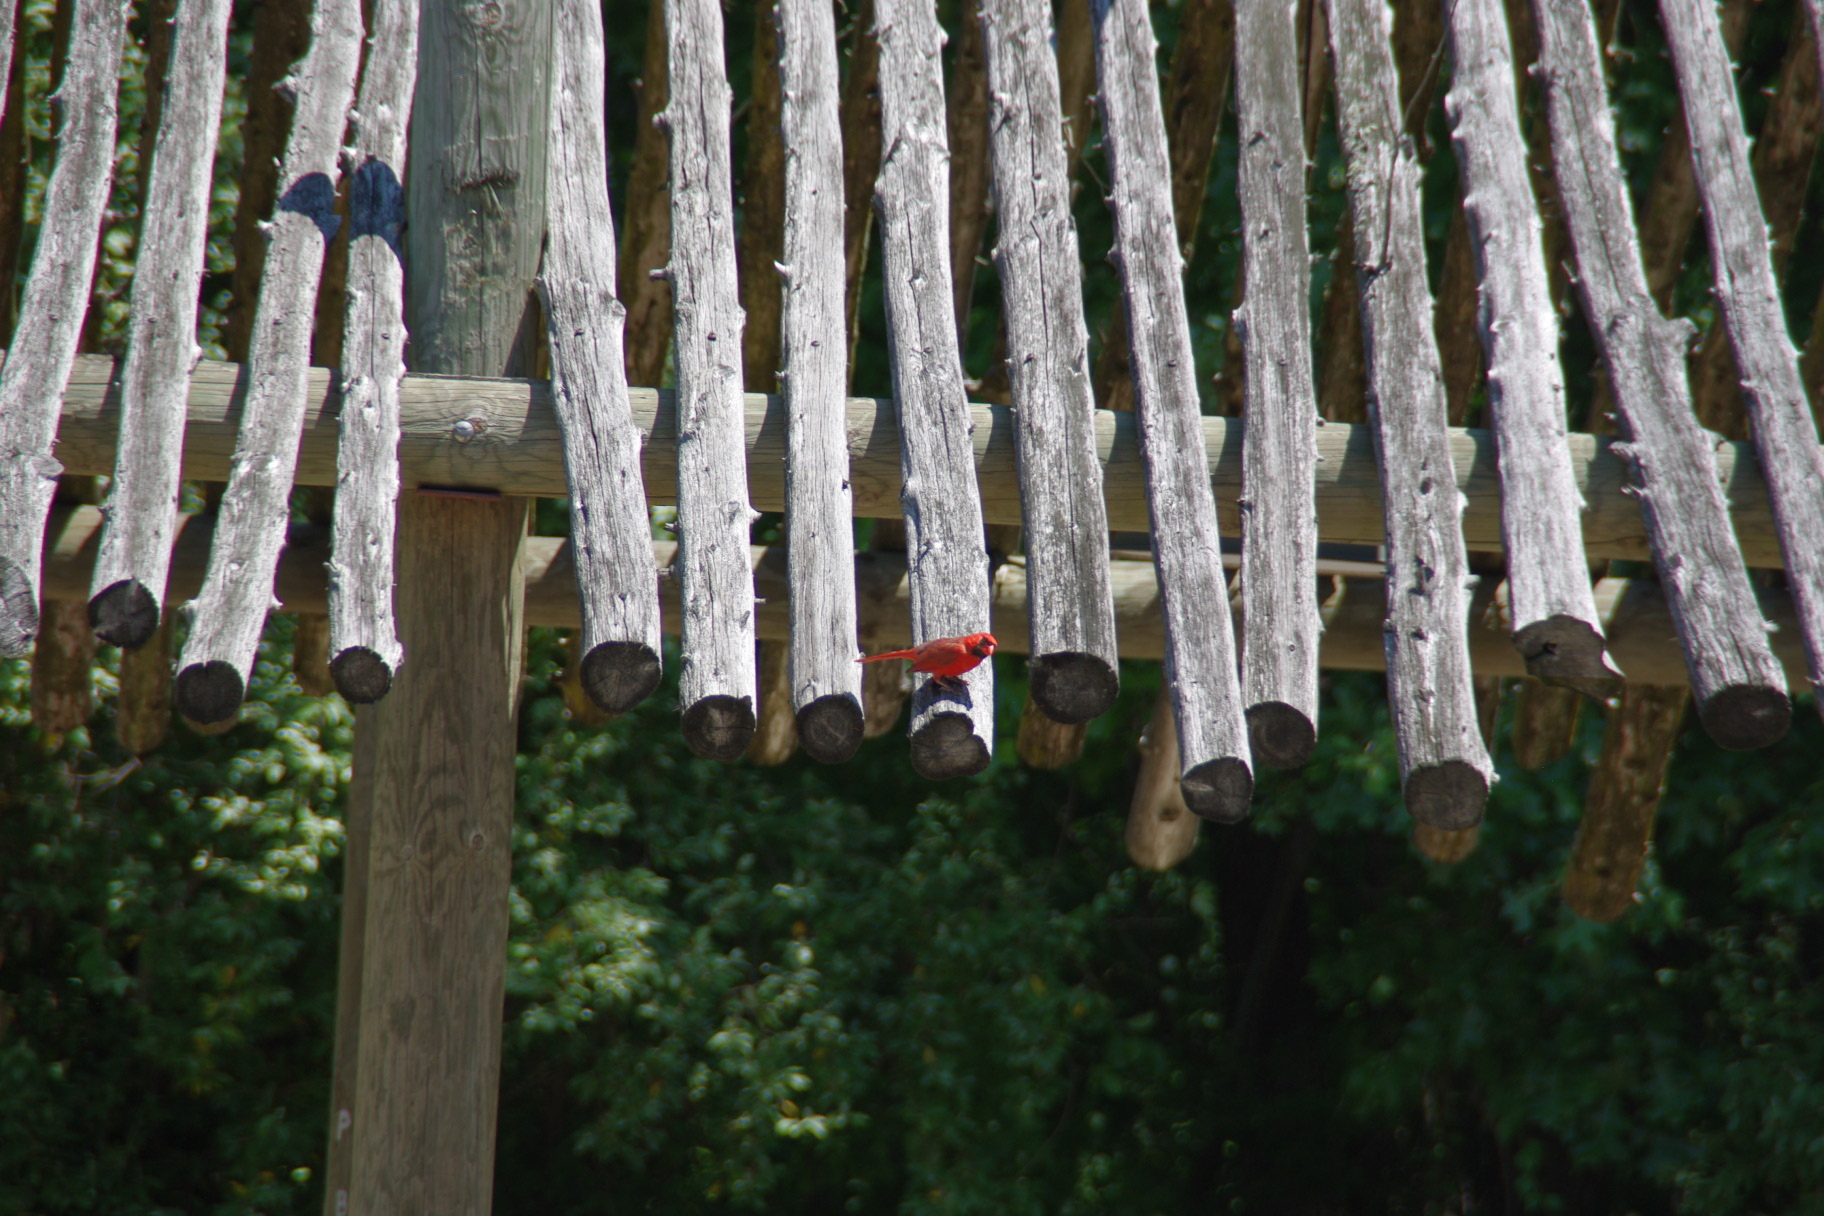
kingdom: Animalia
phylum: Chordata
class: Aves
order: Passeriformes
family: Cardinalidae
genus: Cardinalis
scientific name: Cardinalis cardinalis
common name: Northern cardinal
